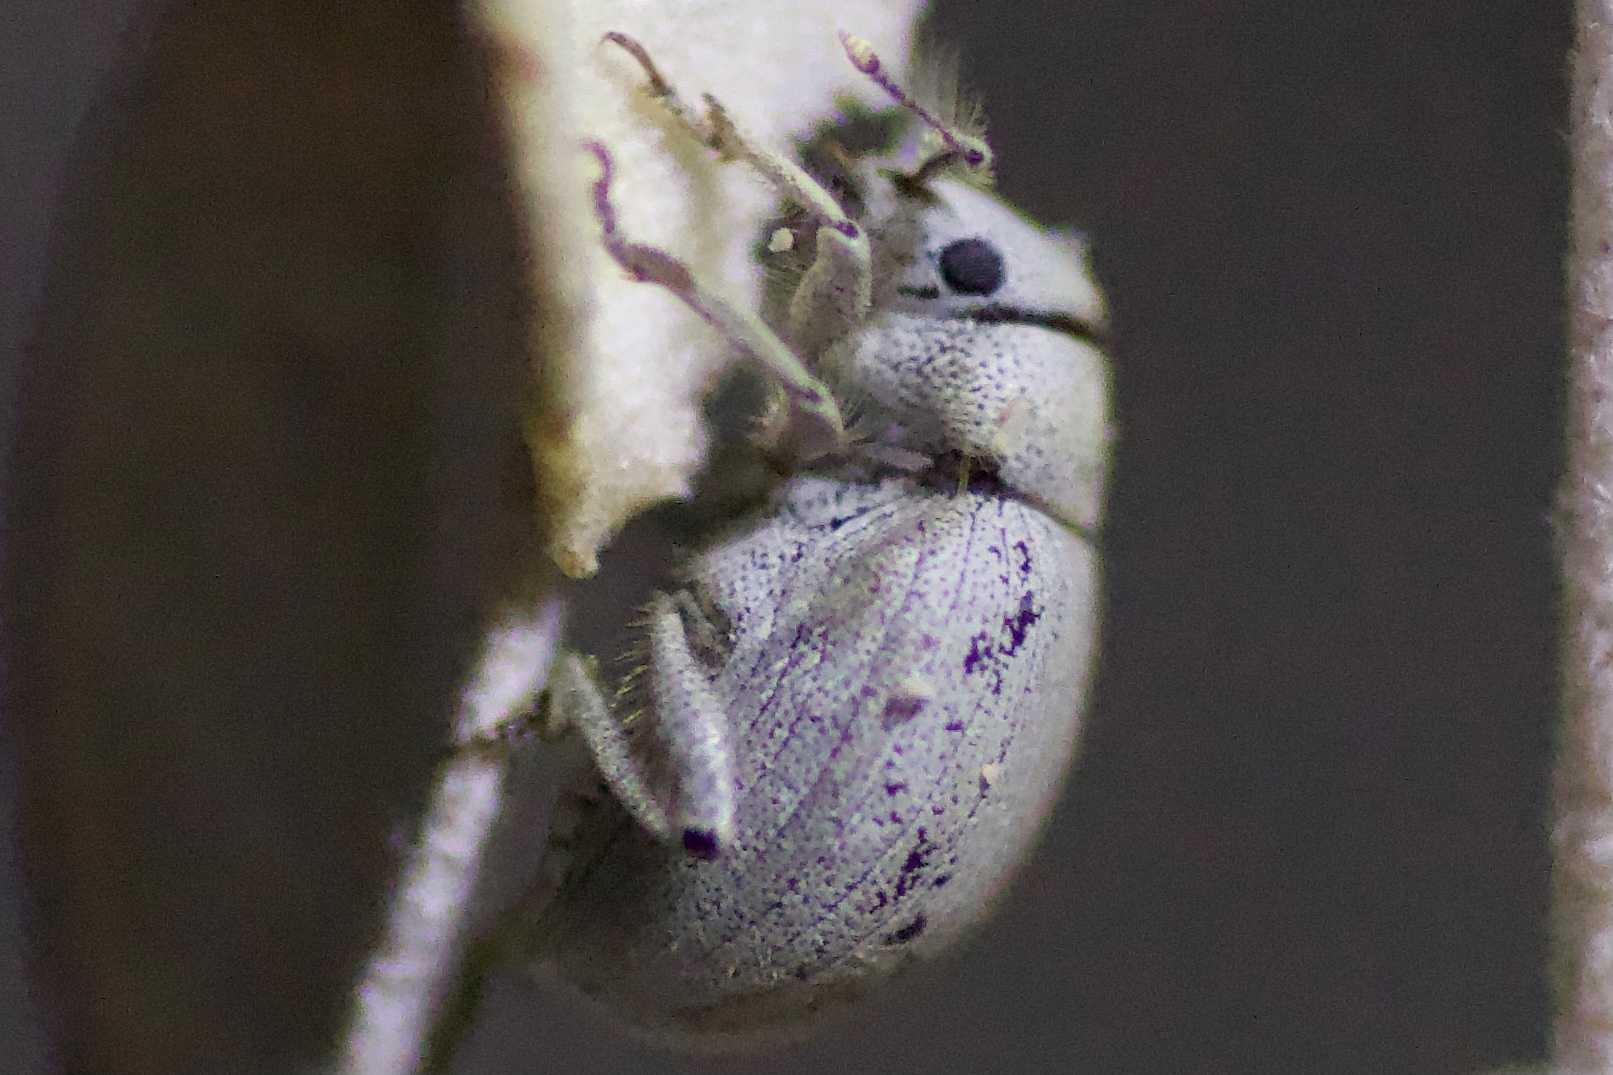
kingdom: Animalia
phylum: Arthropoda
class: Insecta
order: Coleoptera
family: Curculionidae
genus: Eucilinus
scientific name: Eucilinus aridus
